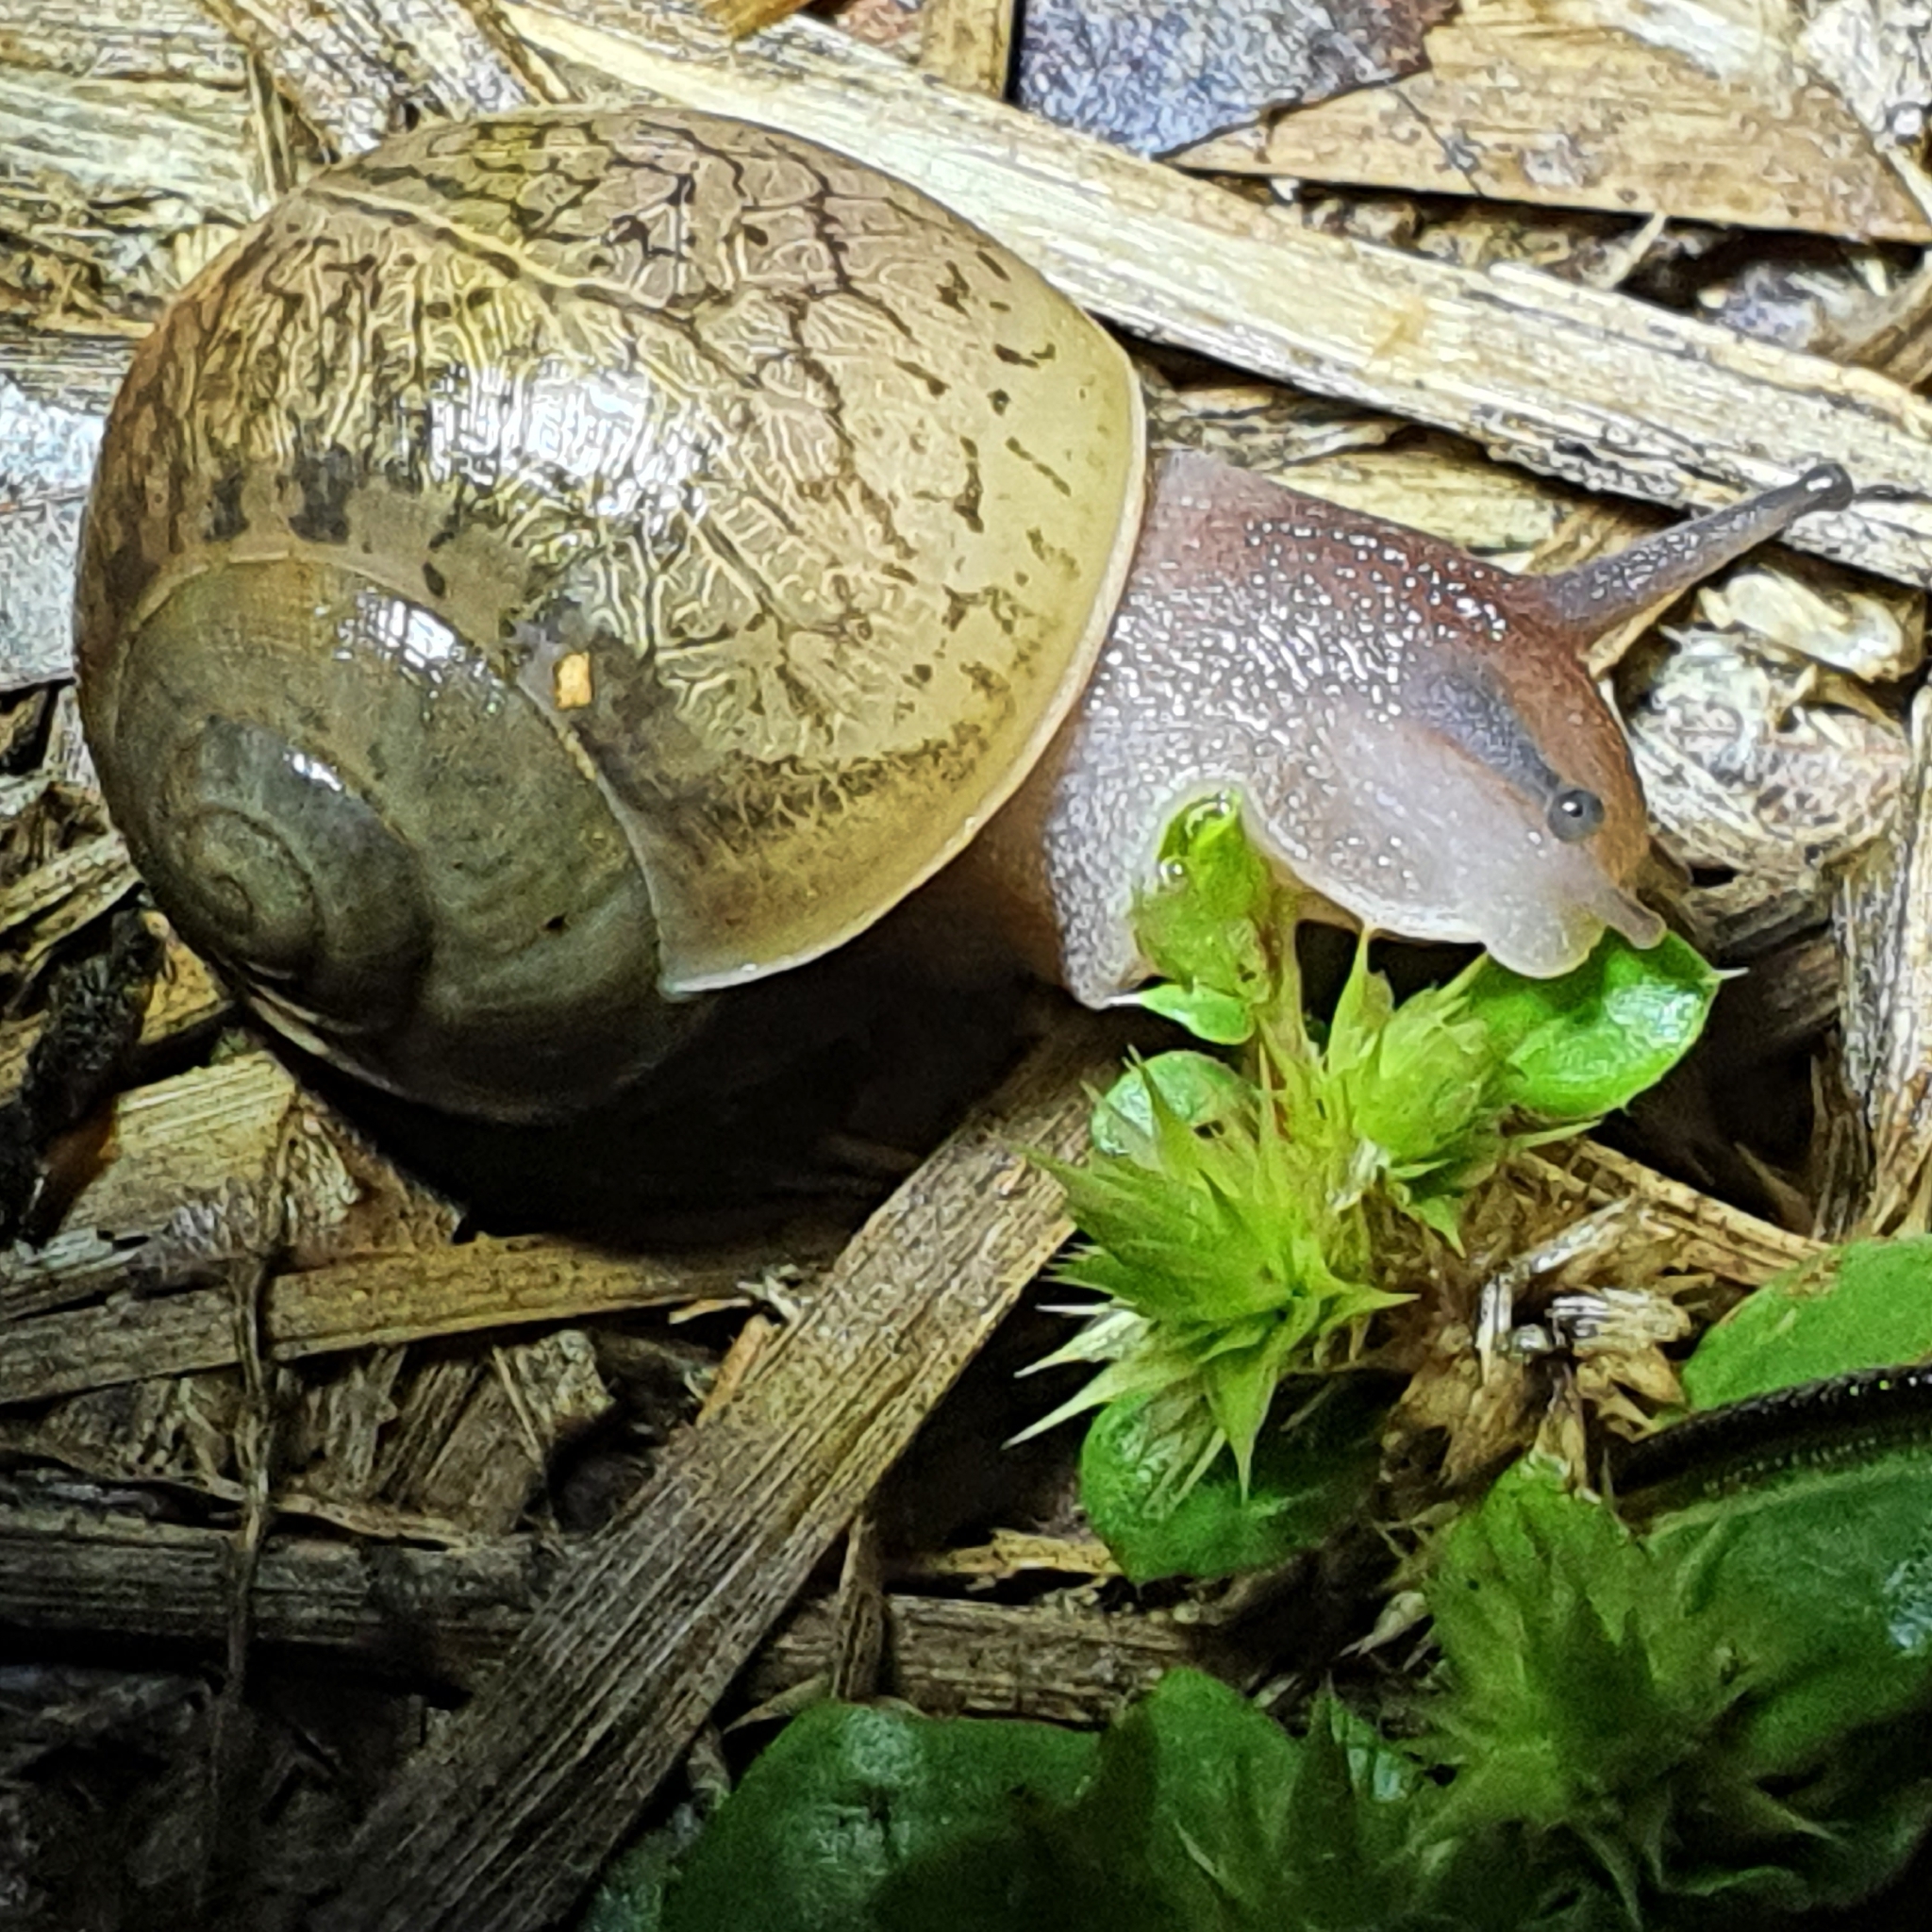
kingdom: Animalia
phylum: Mollusca
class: Gastropoda
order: Stylommatophora
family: Camaenidae
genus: Xanthomelon
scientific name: Xanthomelon pachystylum
